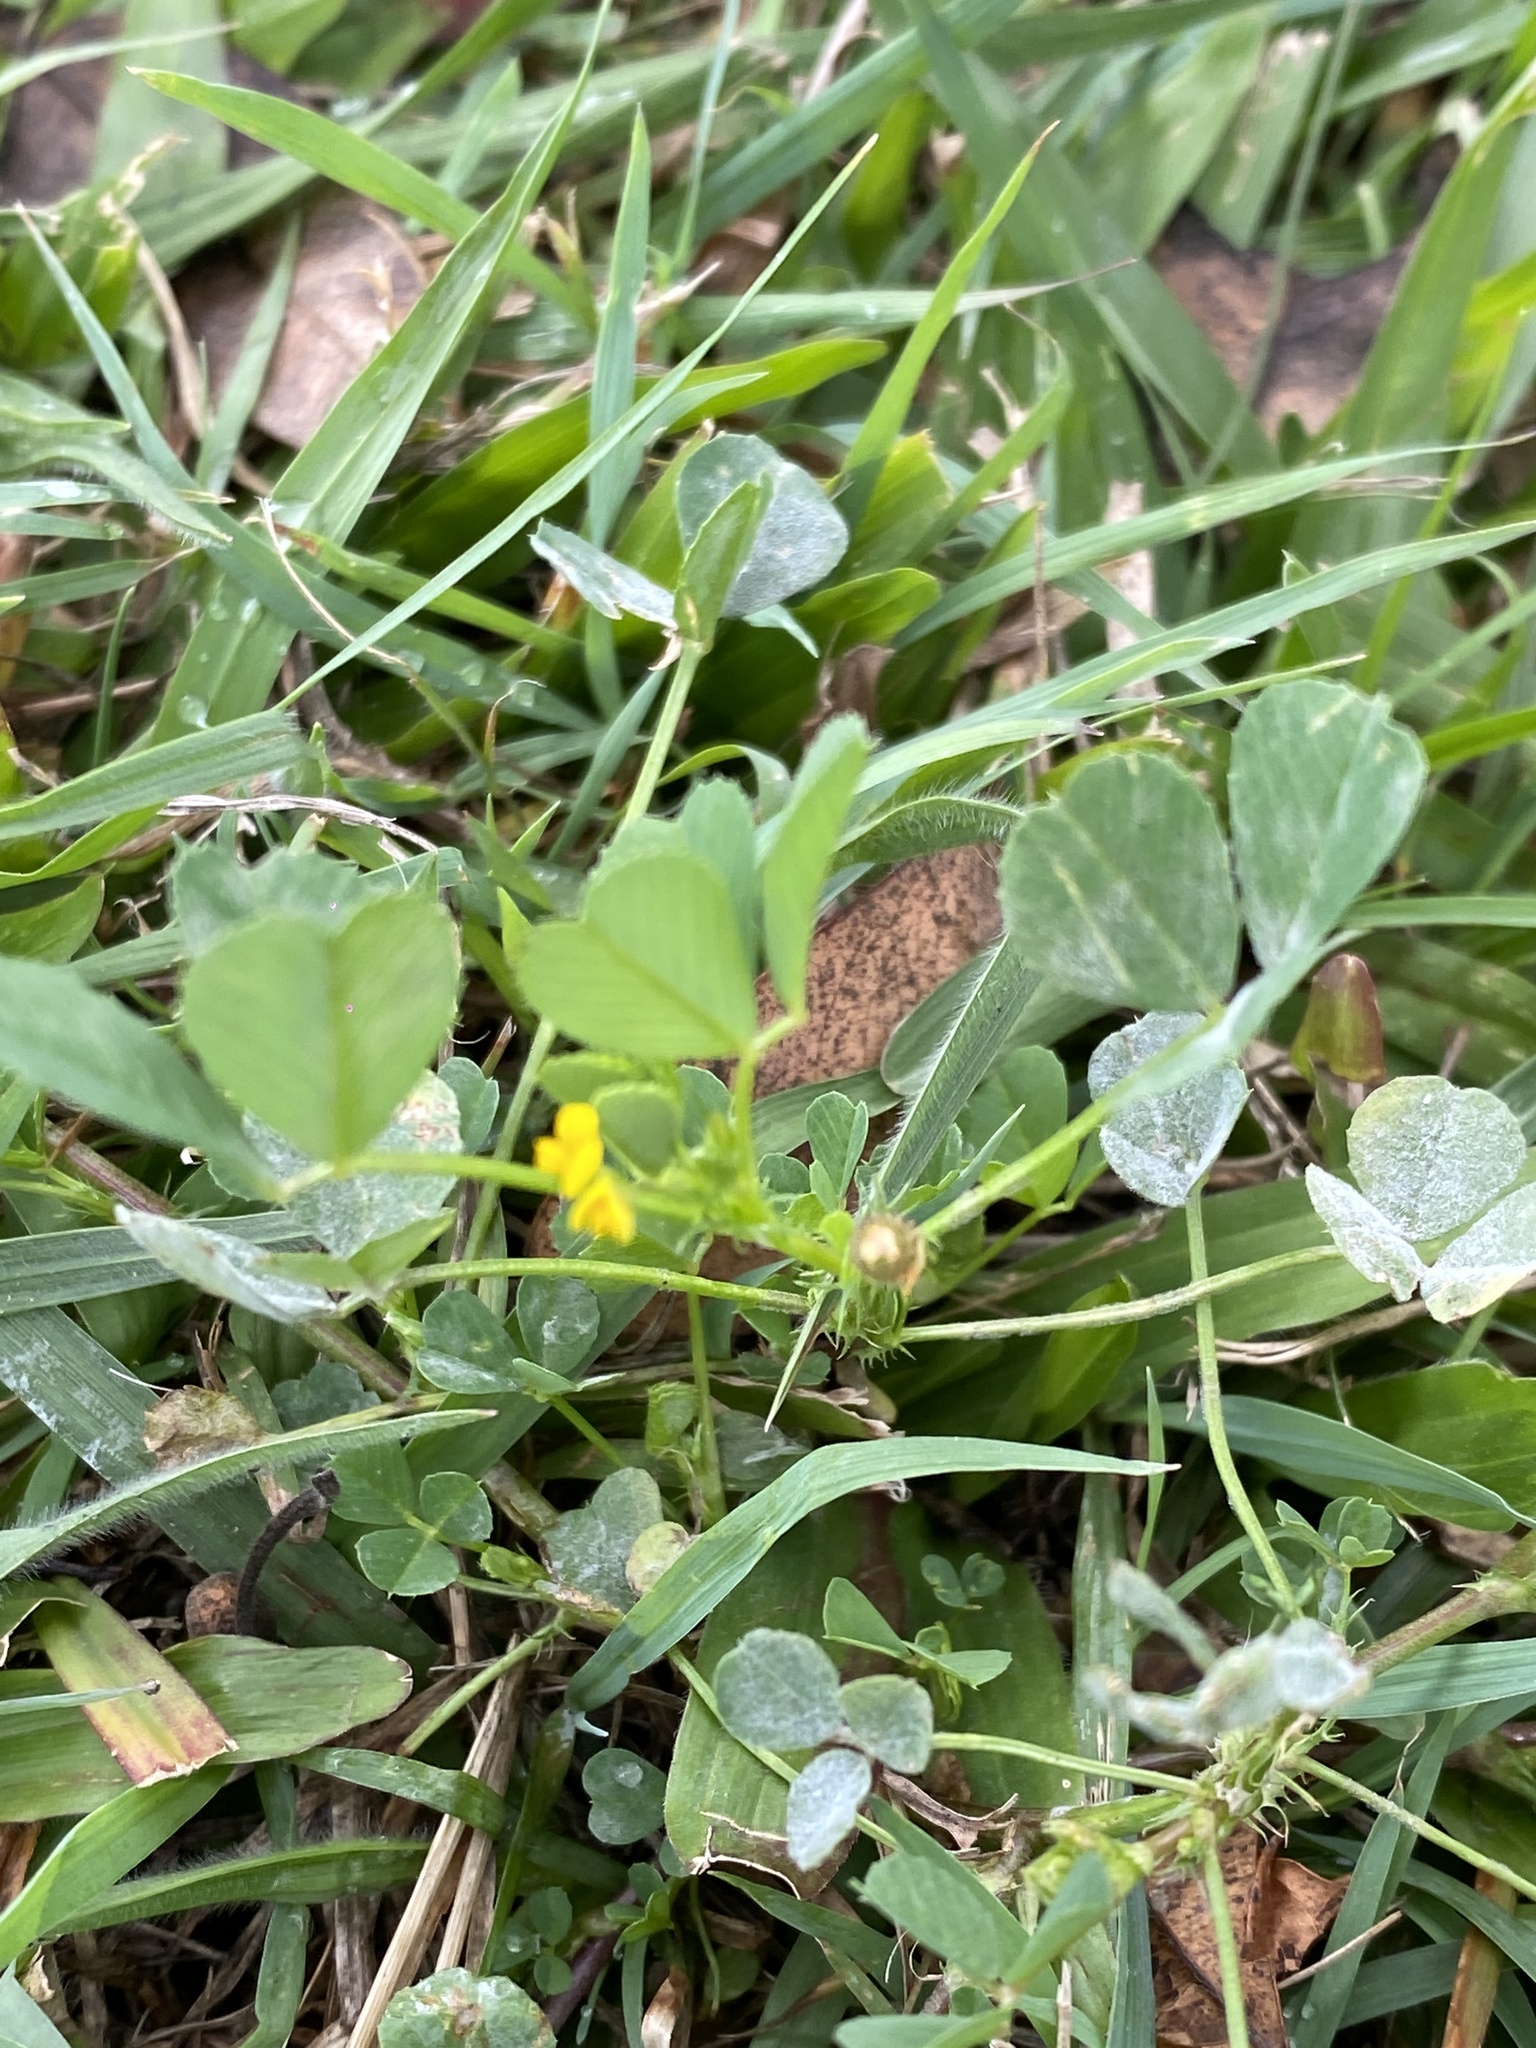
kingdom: Plantae
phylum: Tracheophyta
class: Magnoliopsida
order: Fabales
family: Fabaceae
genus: Medicago
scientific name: Medicago polymorpha
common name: Burclover
